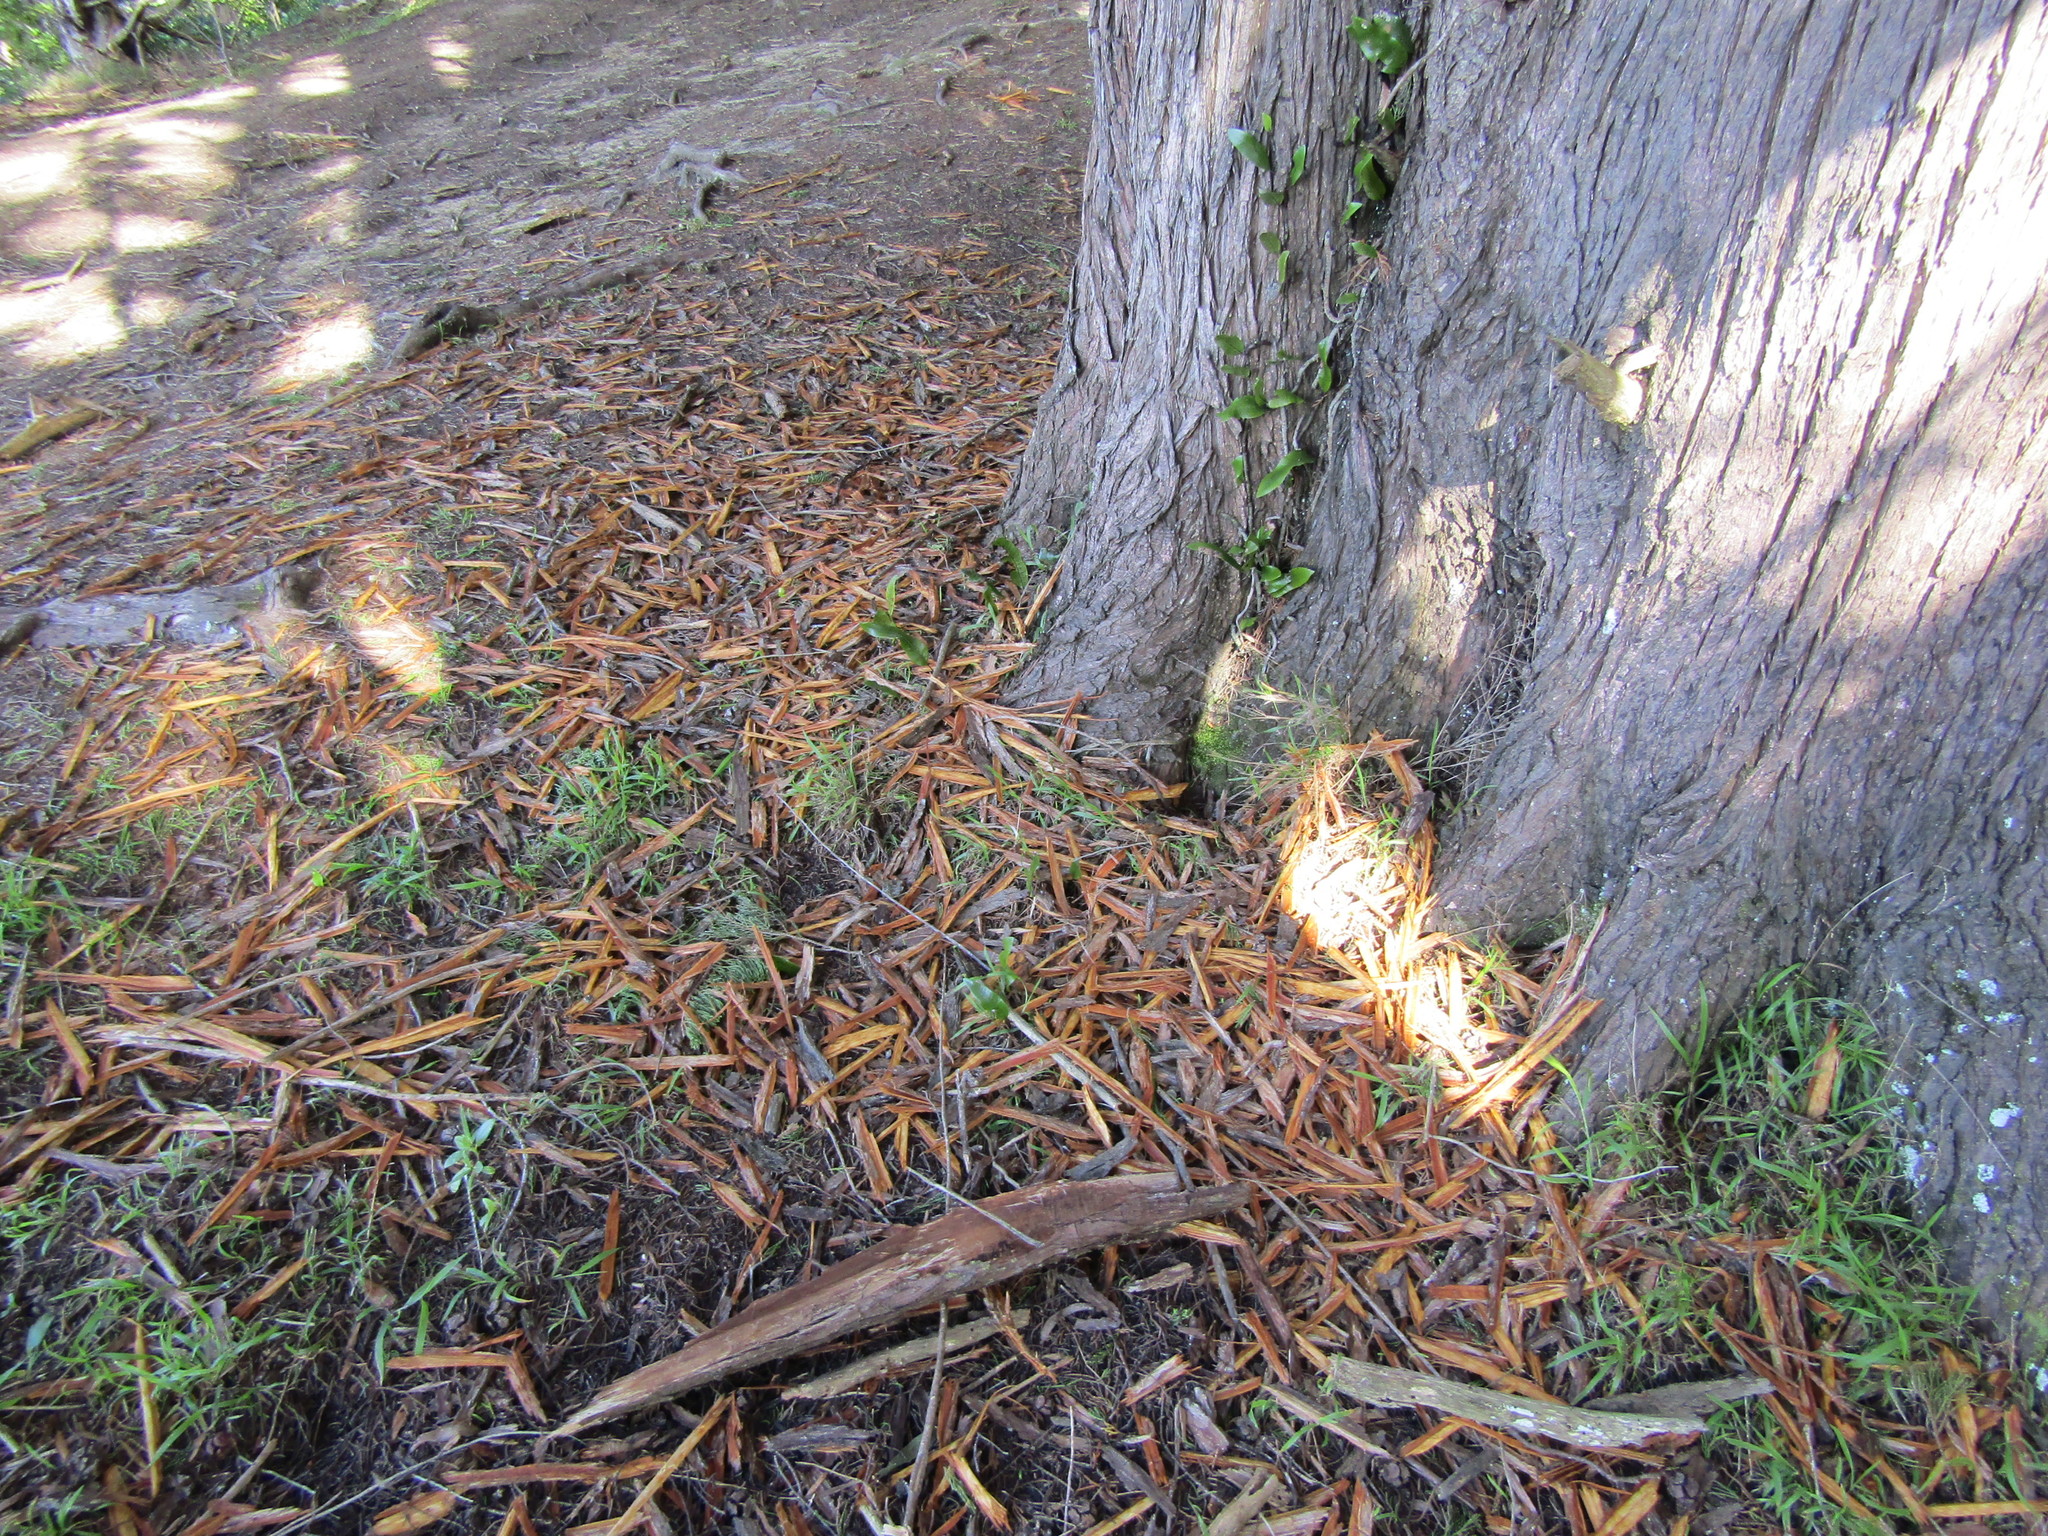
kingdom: Animalia
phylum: Chordata
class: Aves
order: Psittaciformes
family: Psittacidae
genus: Nestor
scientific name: Nestor meridionalis
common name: New zealand kaka
